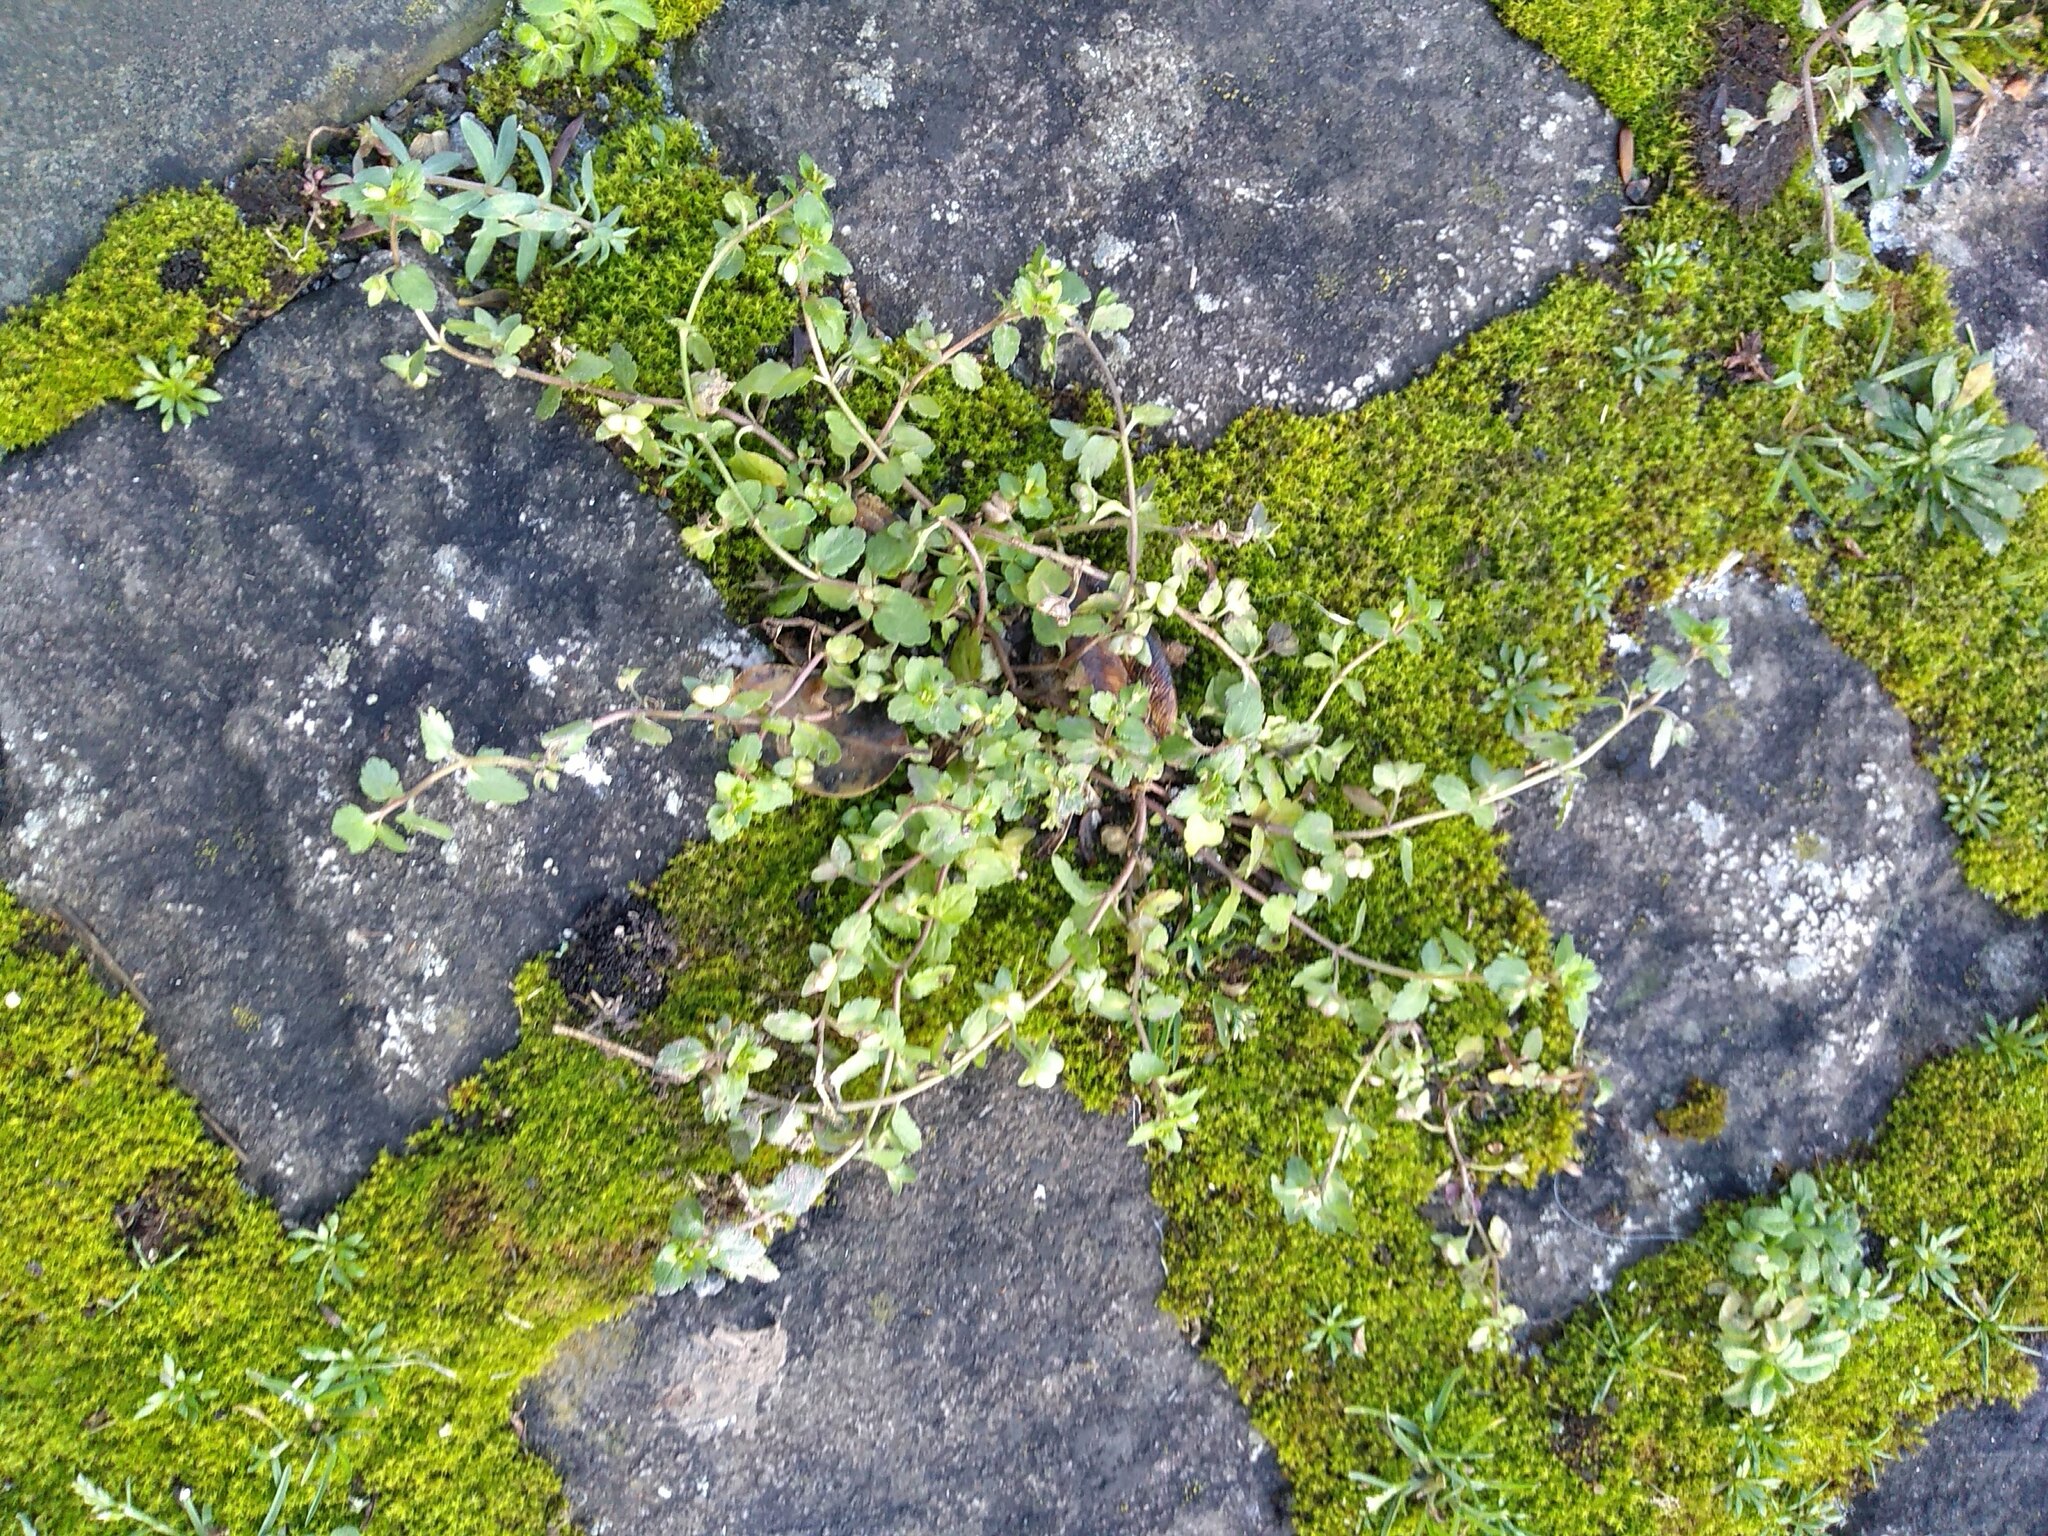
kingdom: Plantae
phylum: Tracheophyta
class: Magnoliopsida
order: Lamiales
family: Plantaginaceae
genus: Veronica
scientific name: Veronica agrestis
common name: Green field-speedwell
